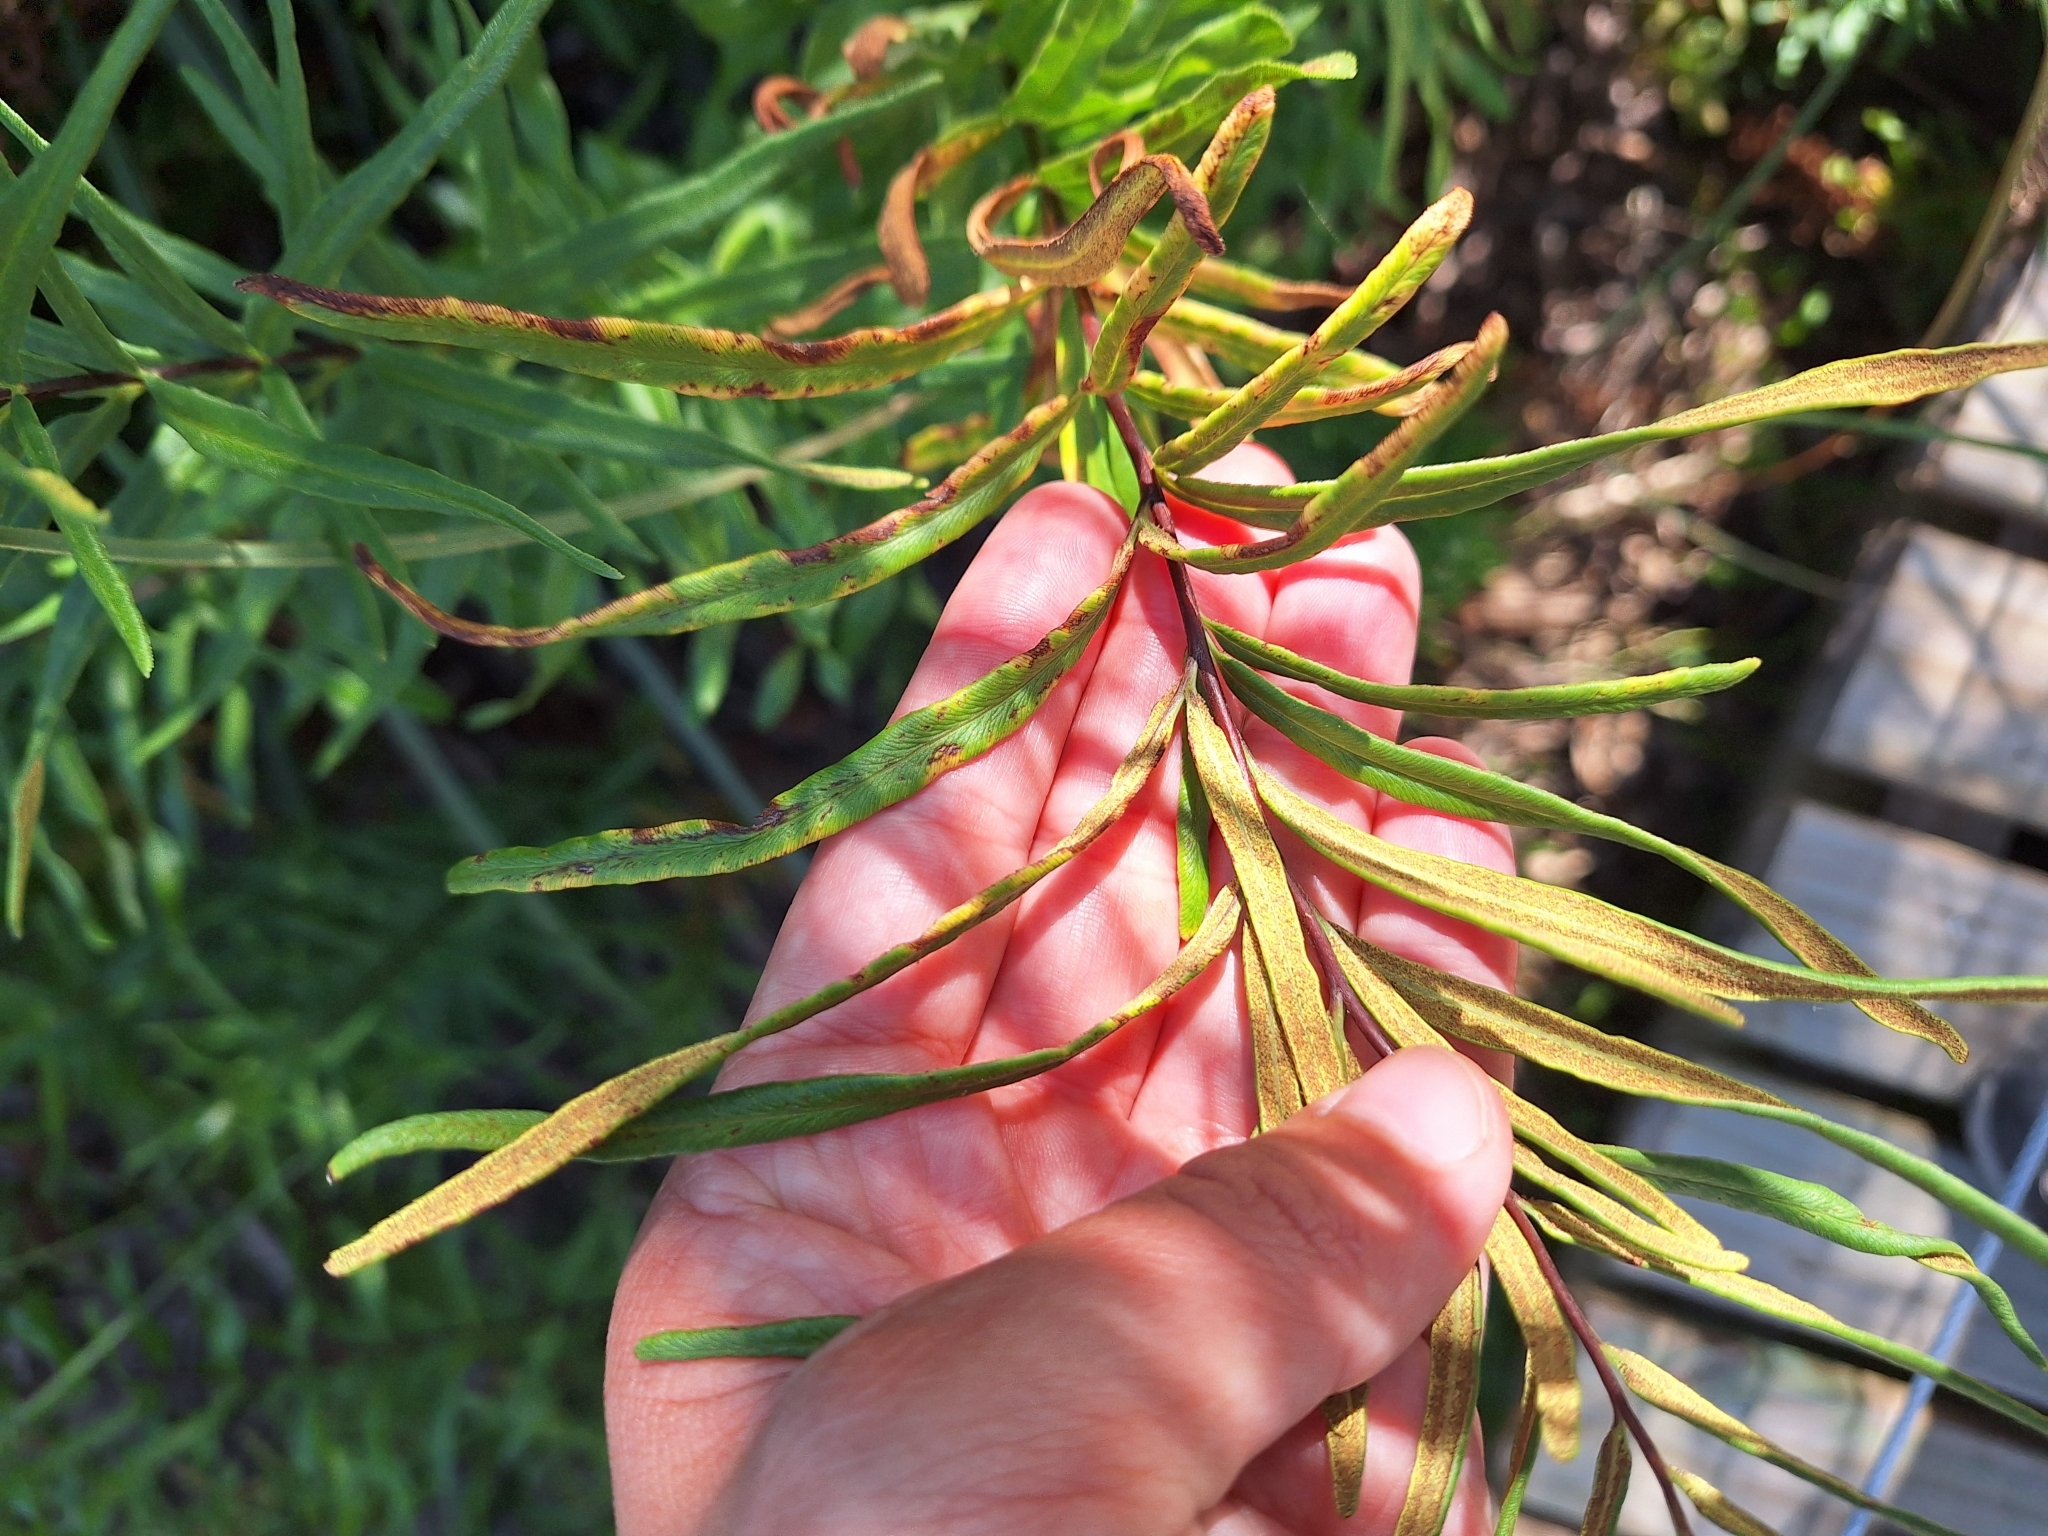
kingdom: Plantae
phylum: Tracheophyta
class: Polypodiopsida
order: Polypodiales
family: Pteridaceae
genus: Pityrogramma
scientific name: Pityrogramma trifoliata
